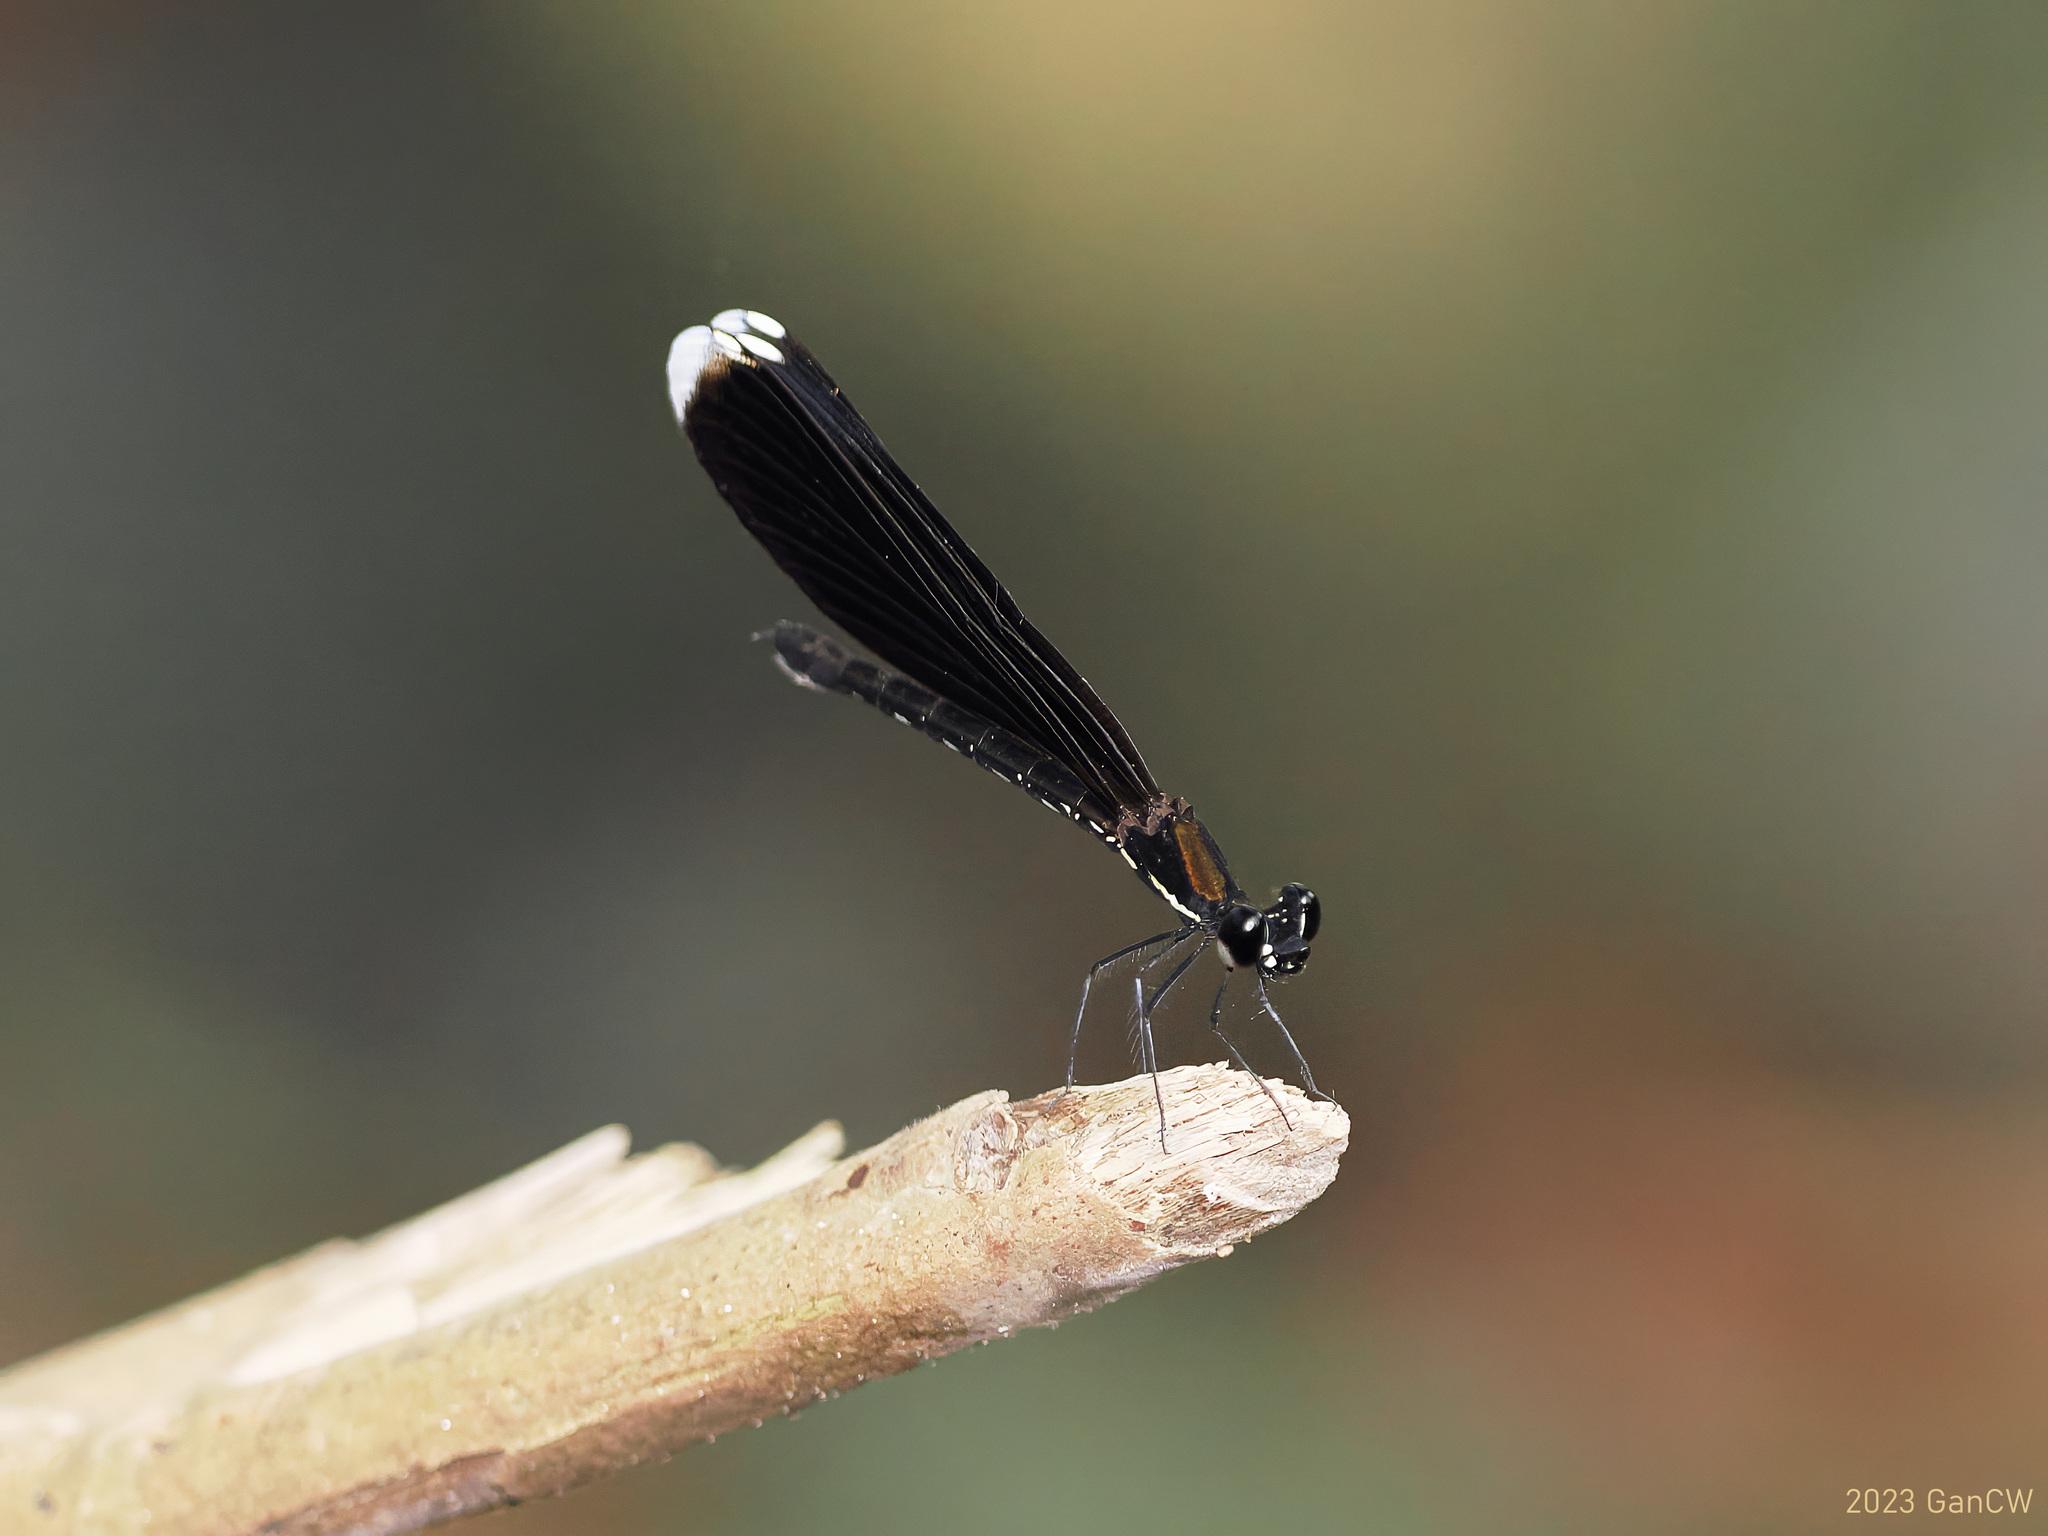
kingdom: Animalia
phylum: Arthropoda
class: Insecta
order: Odonata
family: Chlorocyphidae
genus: Rhinocypha
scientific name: Rhinocypha monochroa
